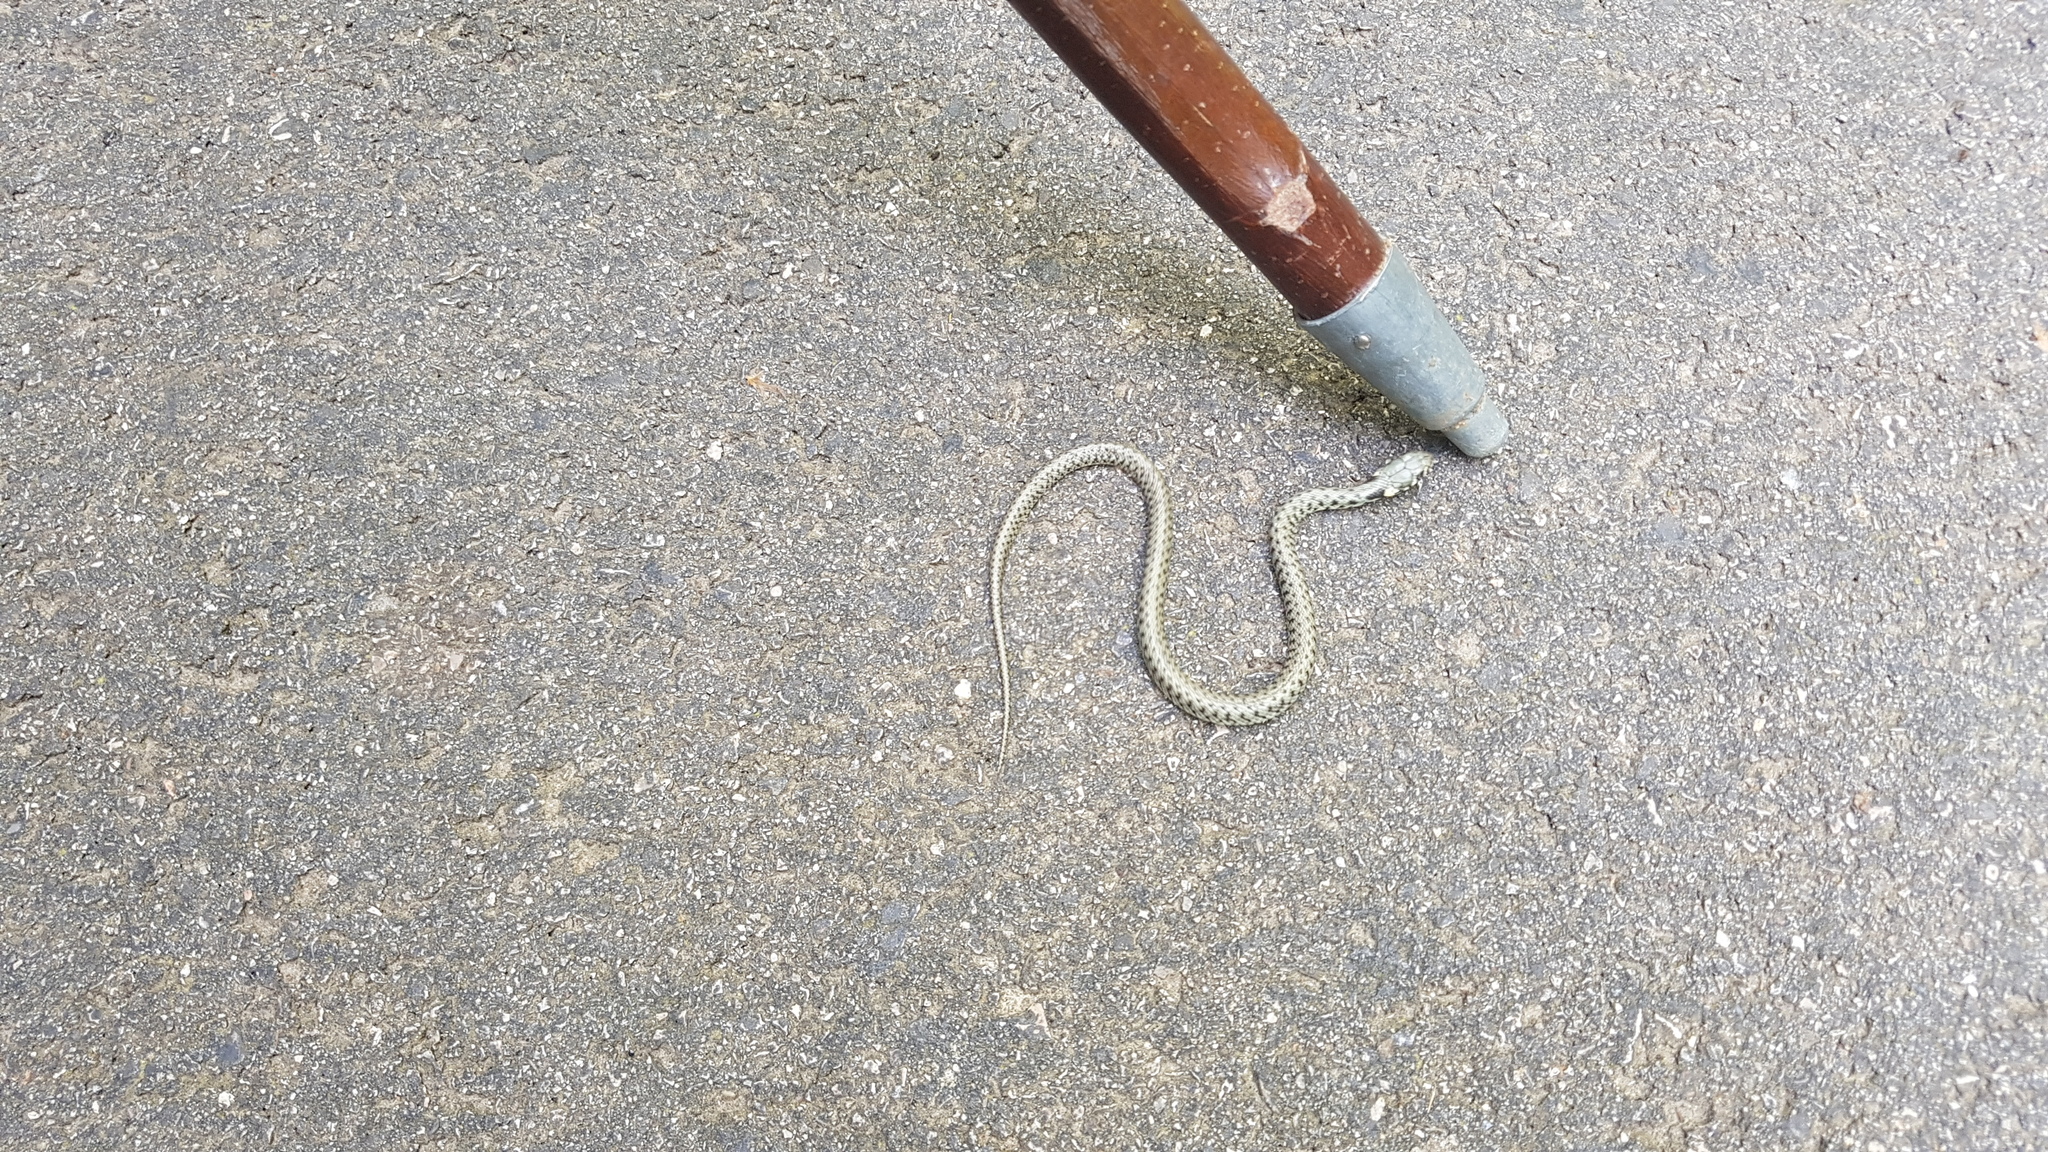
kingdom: Animalia
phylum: Chordata
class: Squamata
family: Colubridae
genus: Natrix
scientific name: Natrix helvetica
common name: Banded grass snake
